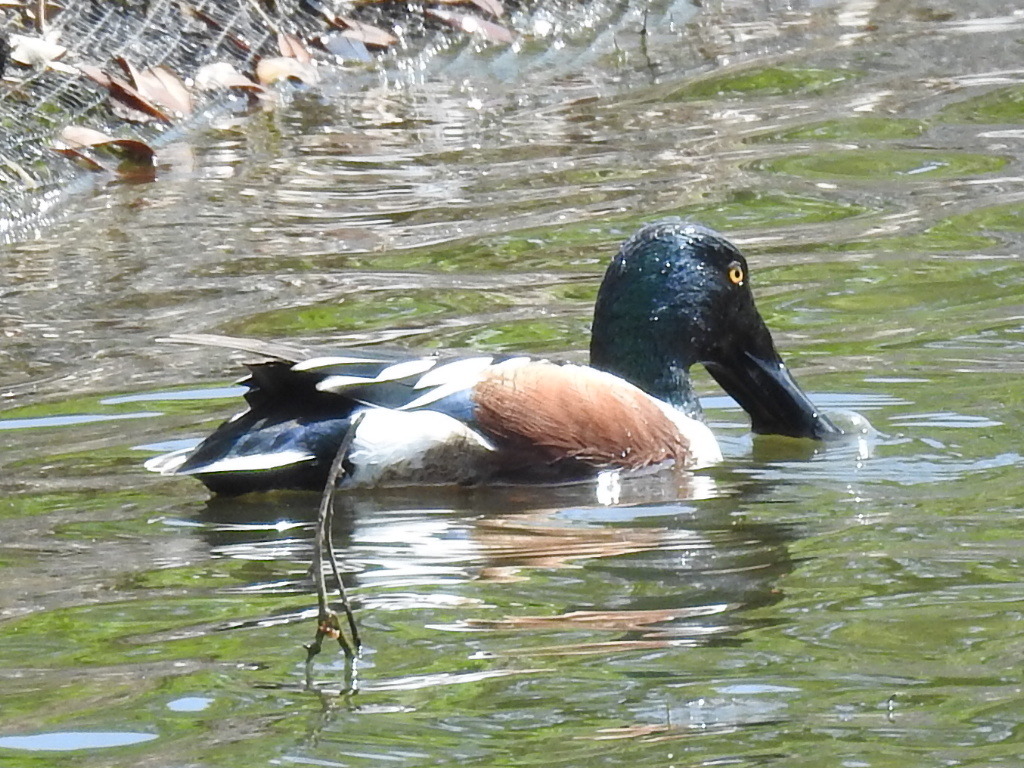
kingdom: Animalia
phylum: Chordata
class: Aves
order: Anseriformes
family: Anatidae
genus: Spatula
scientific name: Spatula clypeata
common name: Northern shoveler
